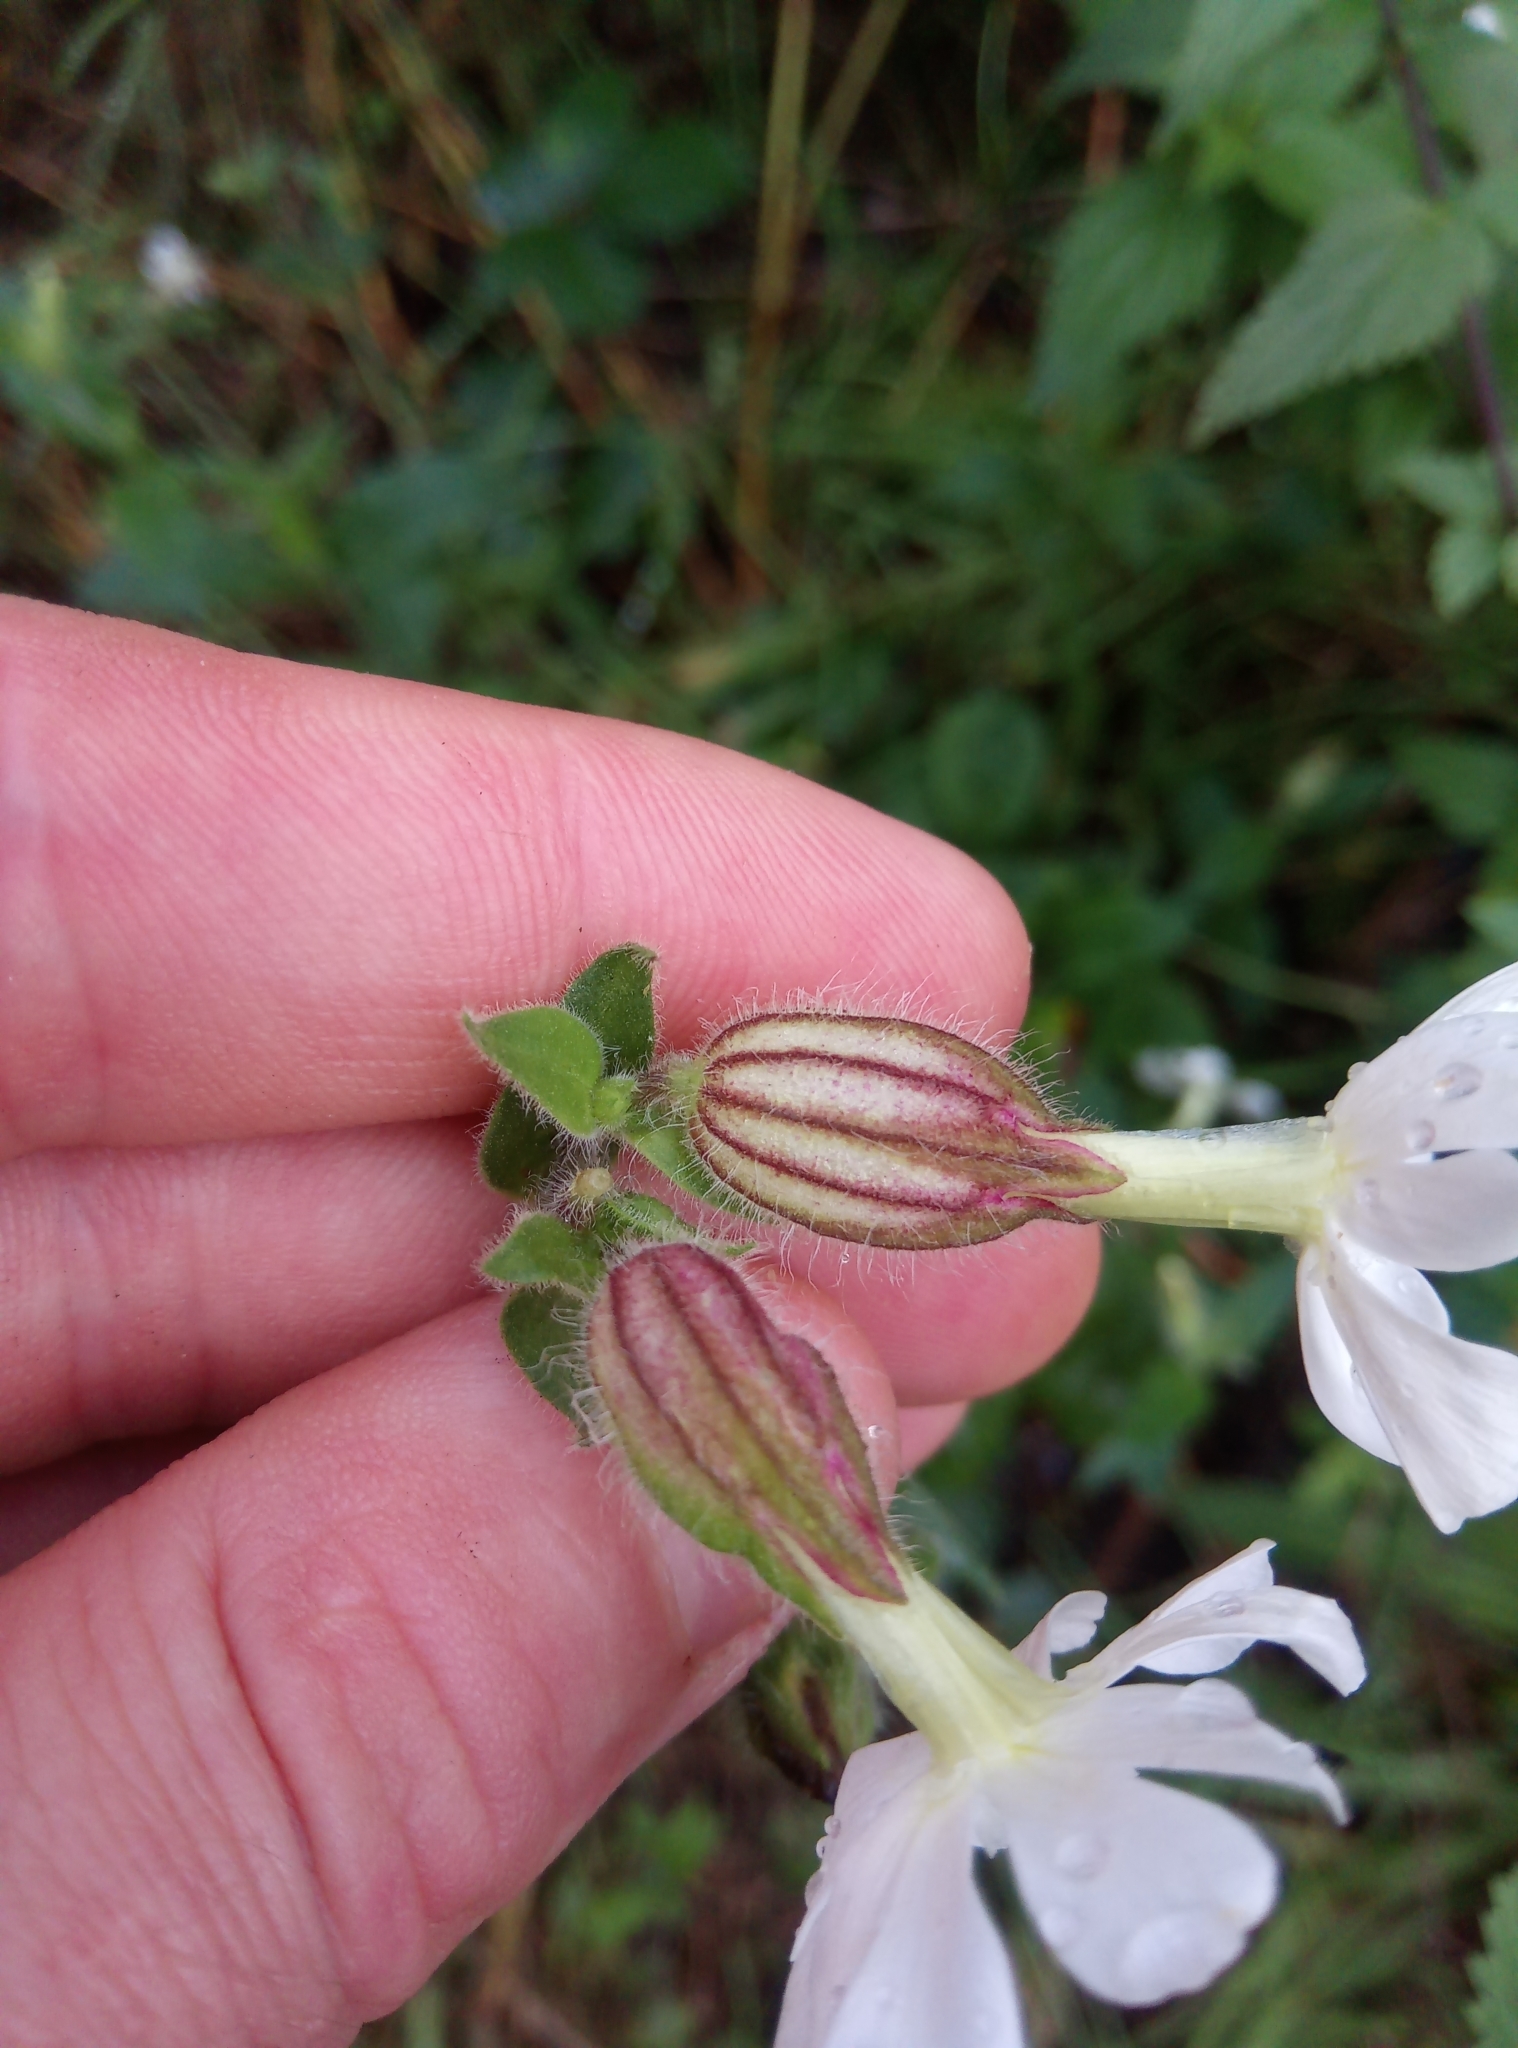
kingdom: Plantae
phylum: Tracheophyta
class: Magnoliopsida
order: Caryophyllales
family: Caryophyllaceae
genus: Silene
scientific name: Silene latifolia
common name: White campion
